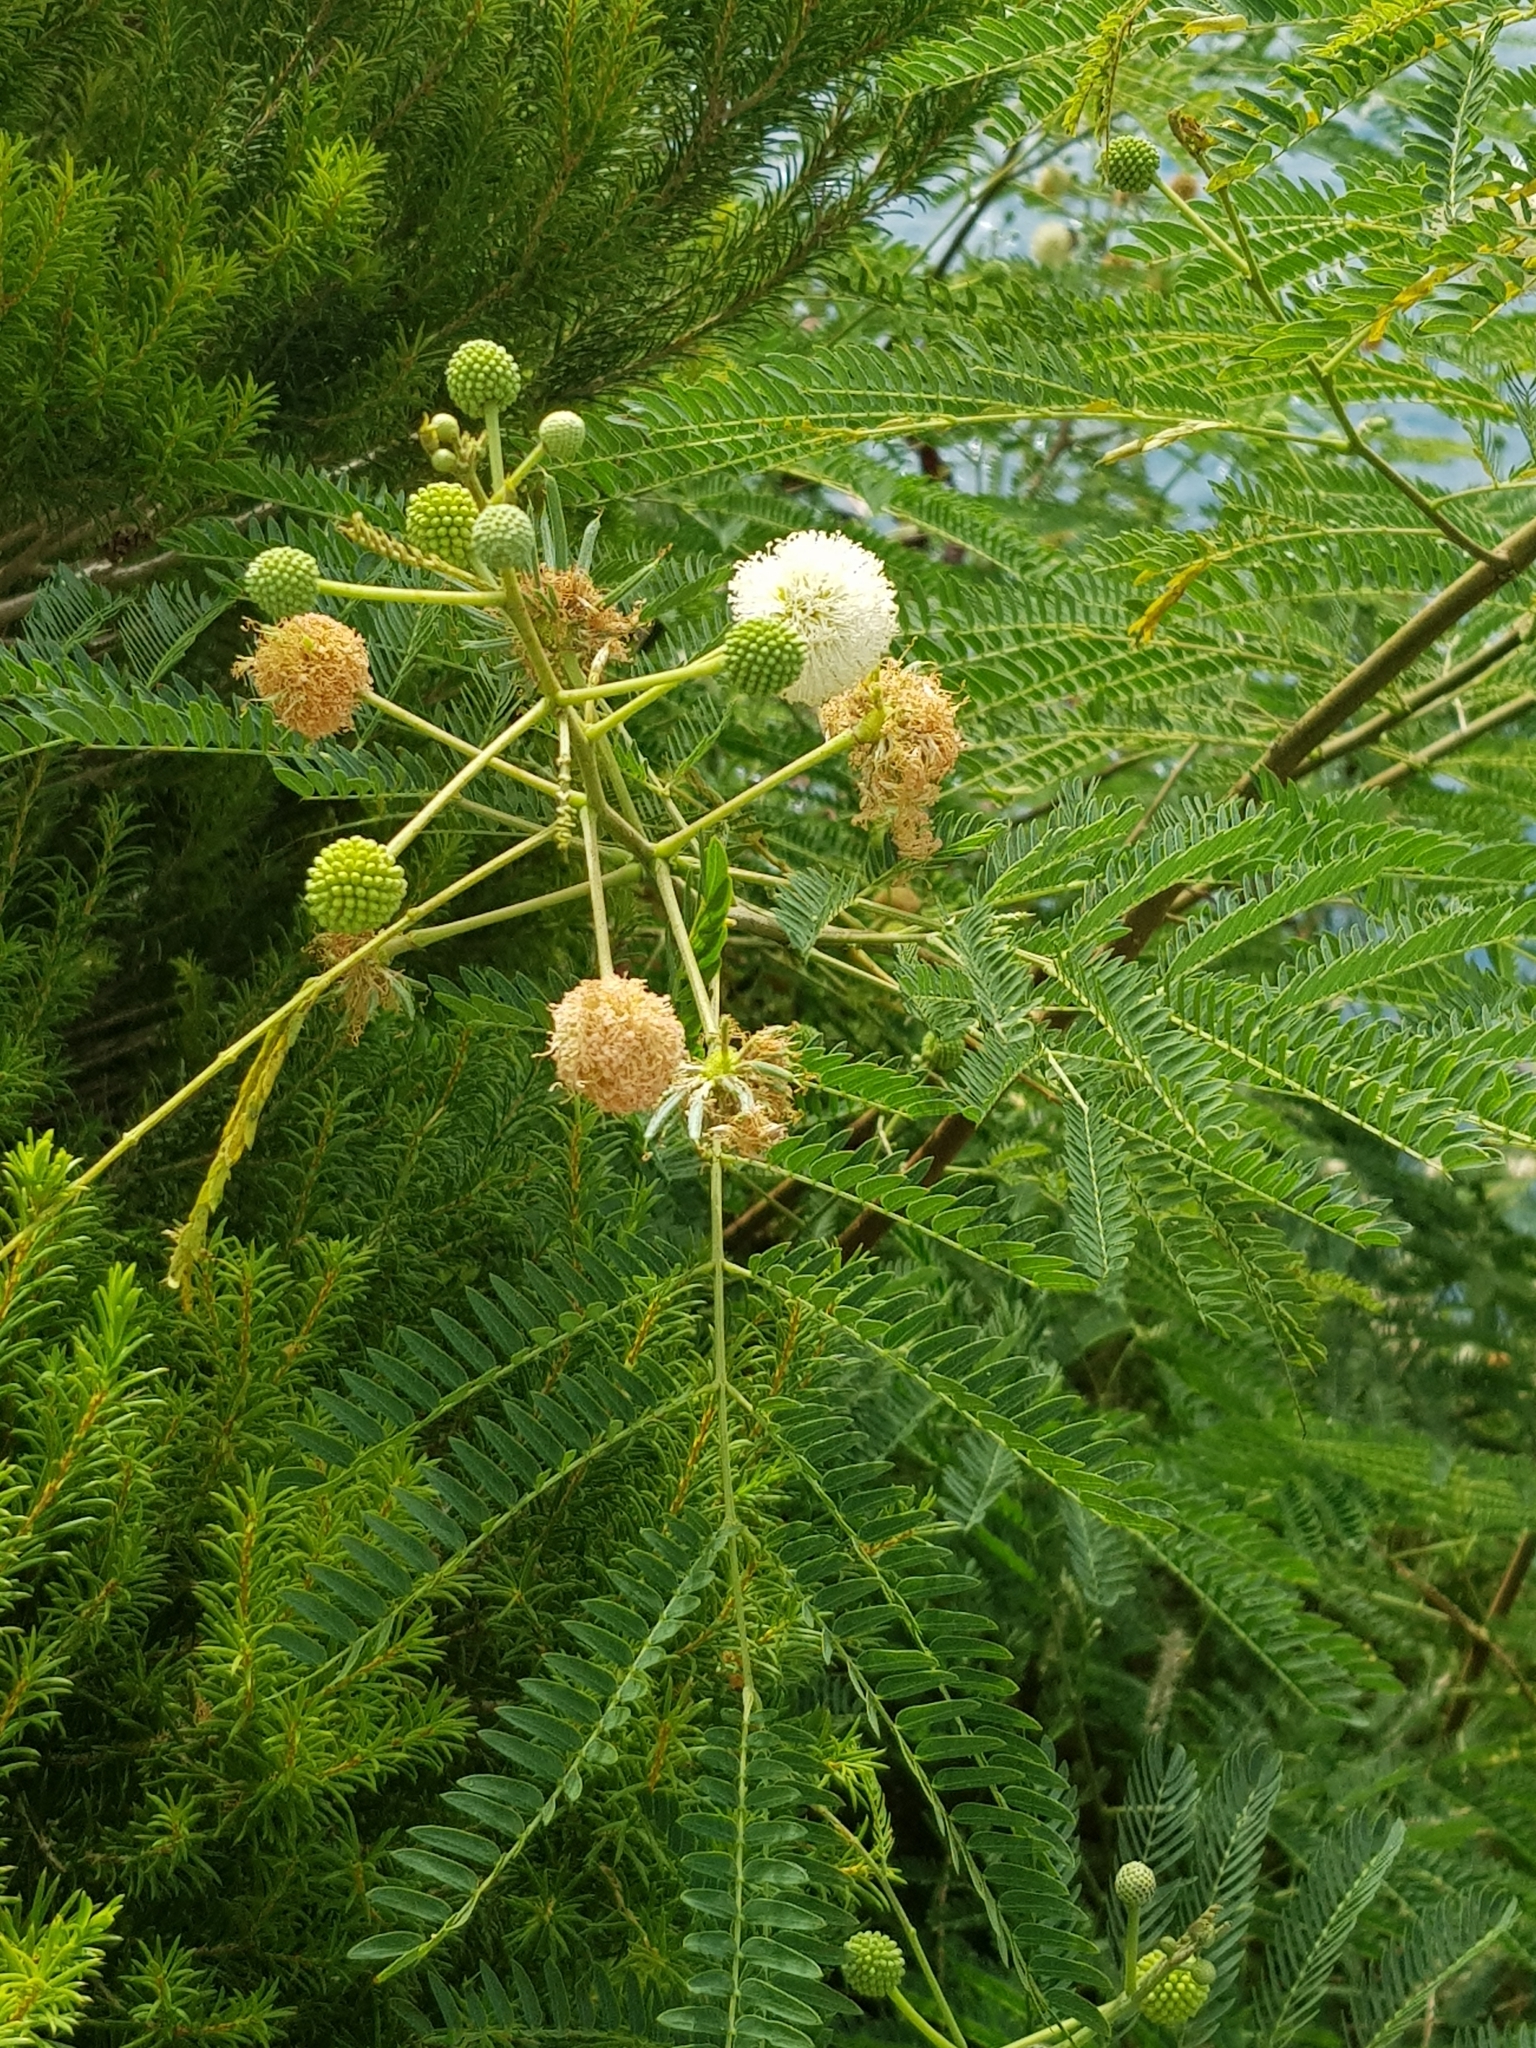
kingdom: Plantae
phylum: Tracheophyta
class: Magnoliopsida
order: Fabales
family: Fabaceae
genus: Leucaena
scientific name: Leucaena leucocephala
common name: White leadtree
